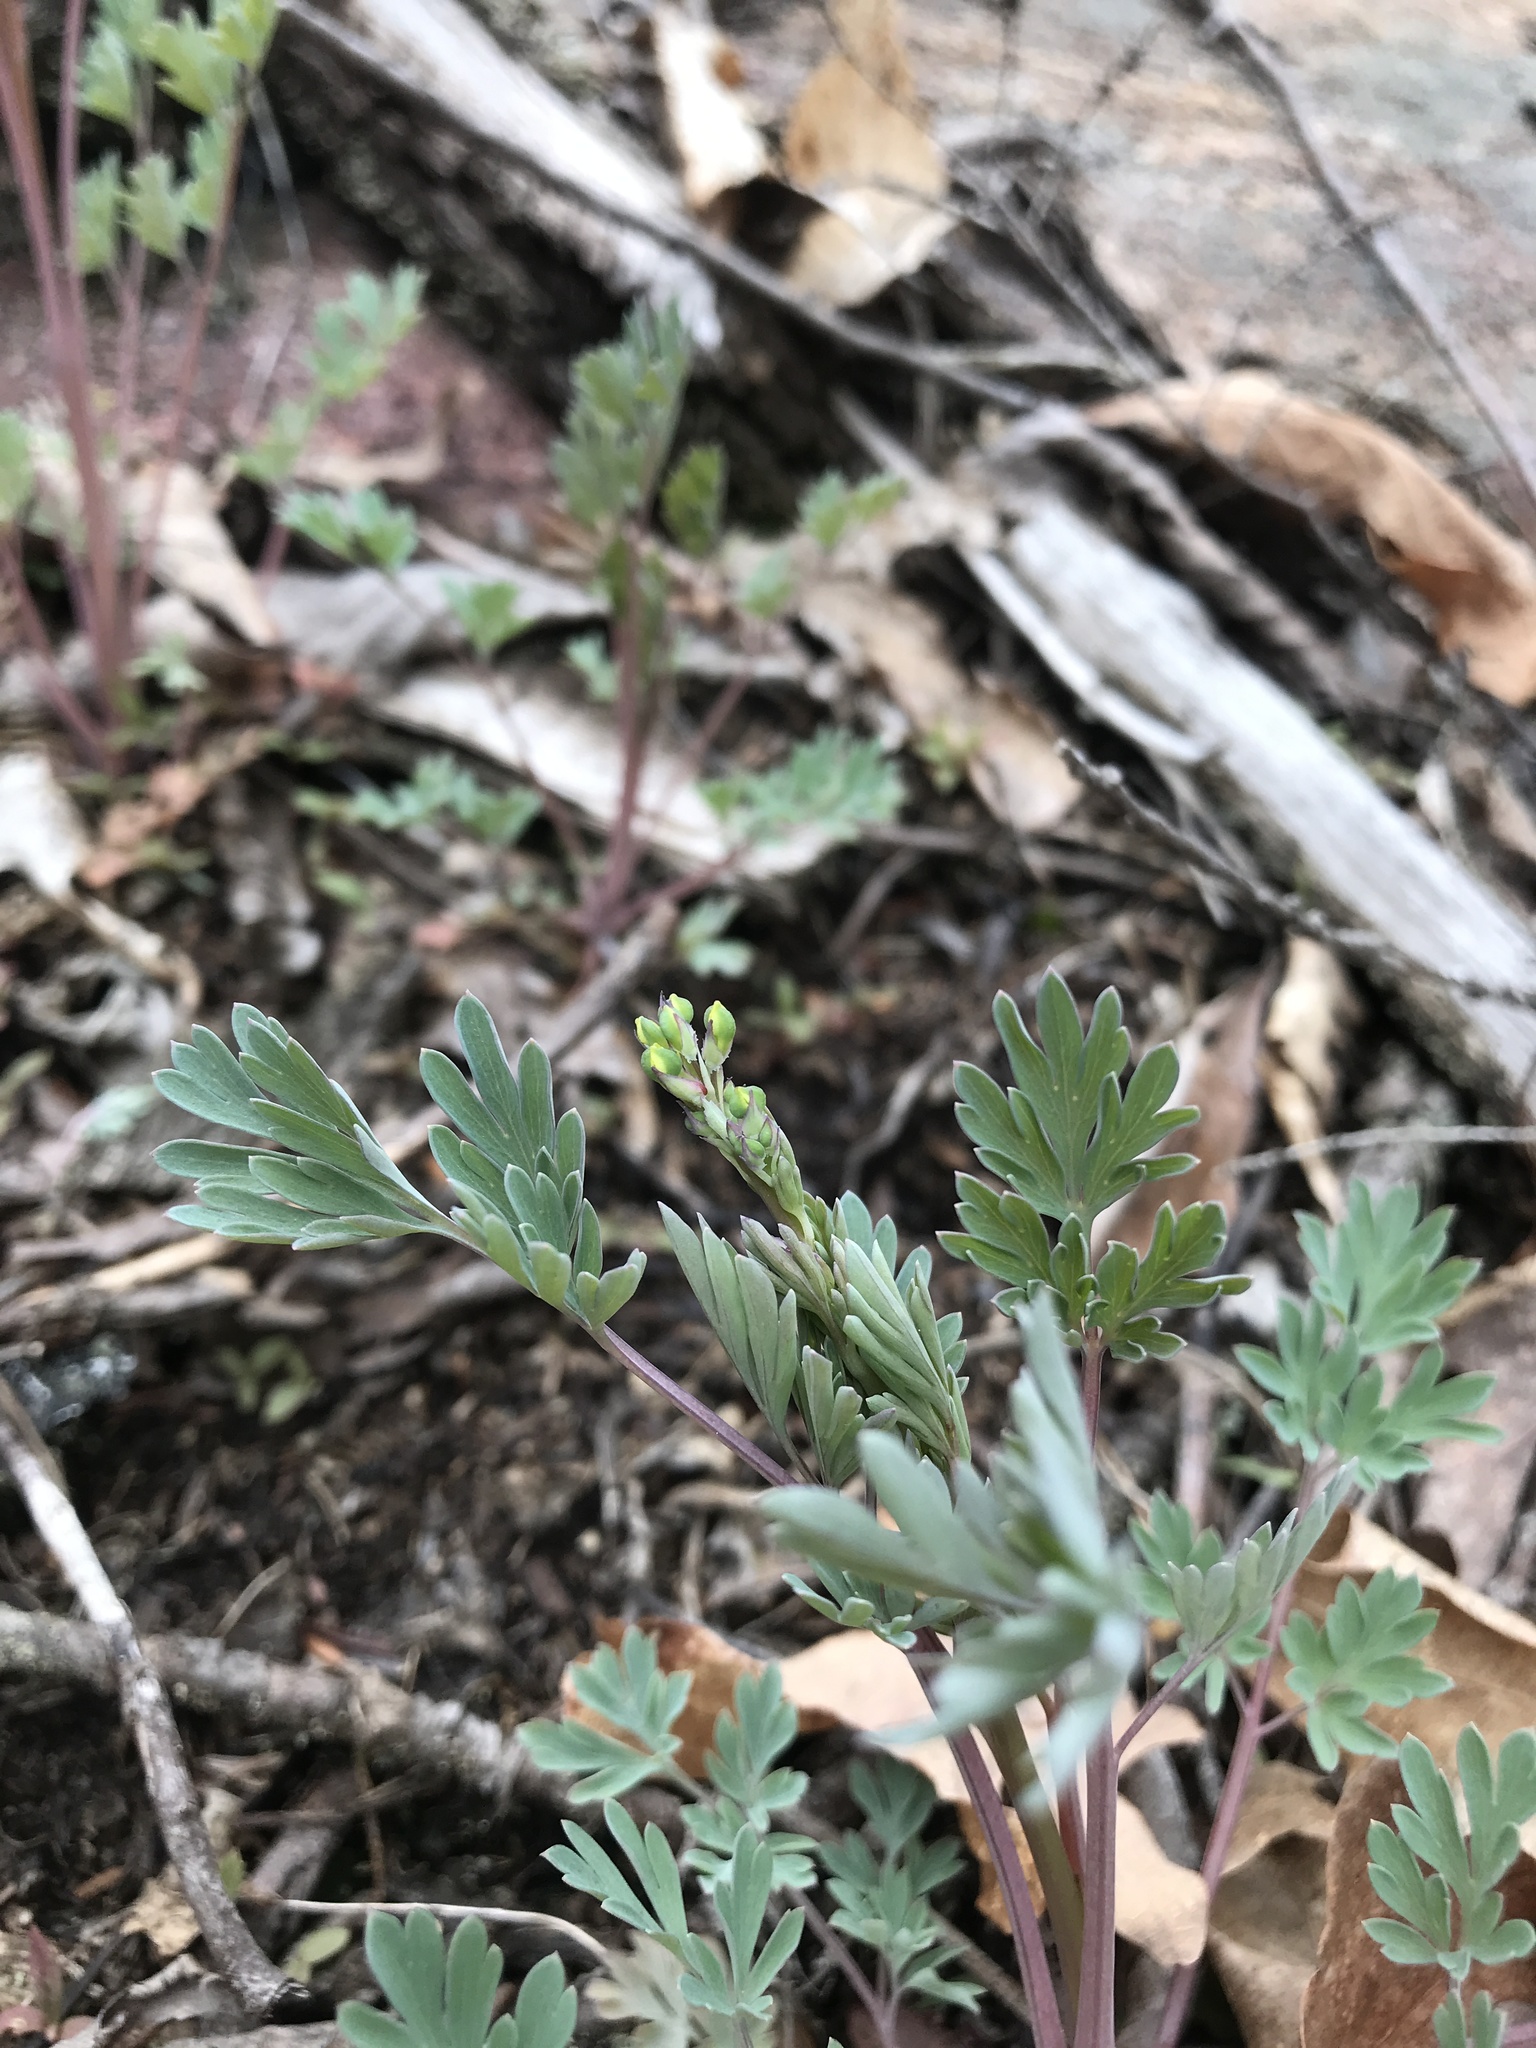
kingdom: Plantae
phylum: Tracheophyta
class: Magnoliopsida
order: Ranunculales
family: Papaveraceae
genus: Capnoides
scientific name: Capnoides sempervirens
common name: Rock harlequin
